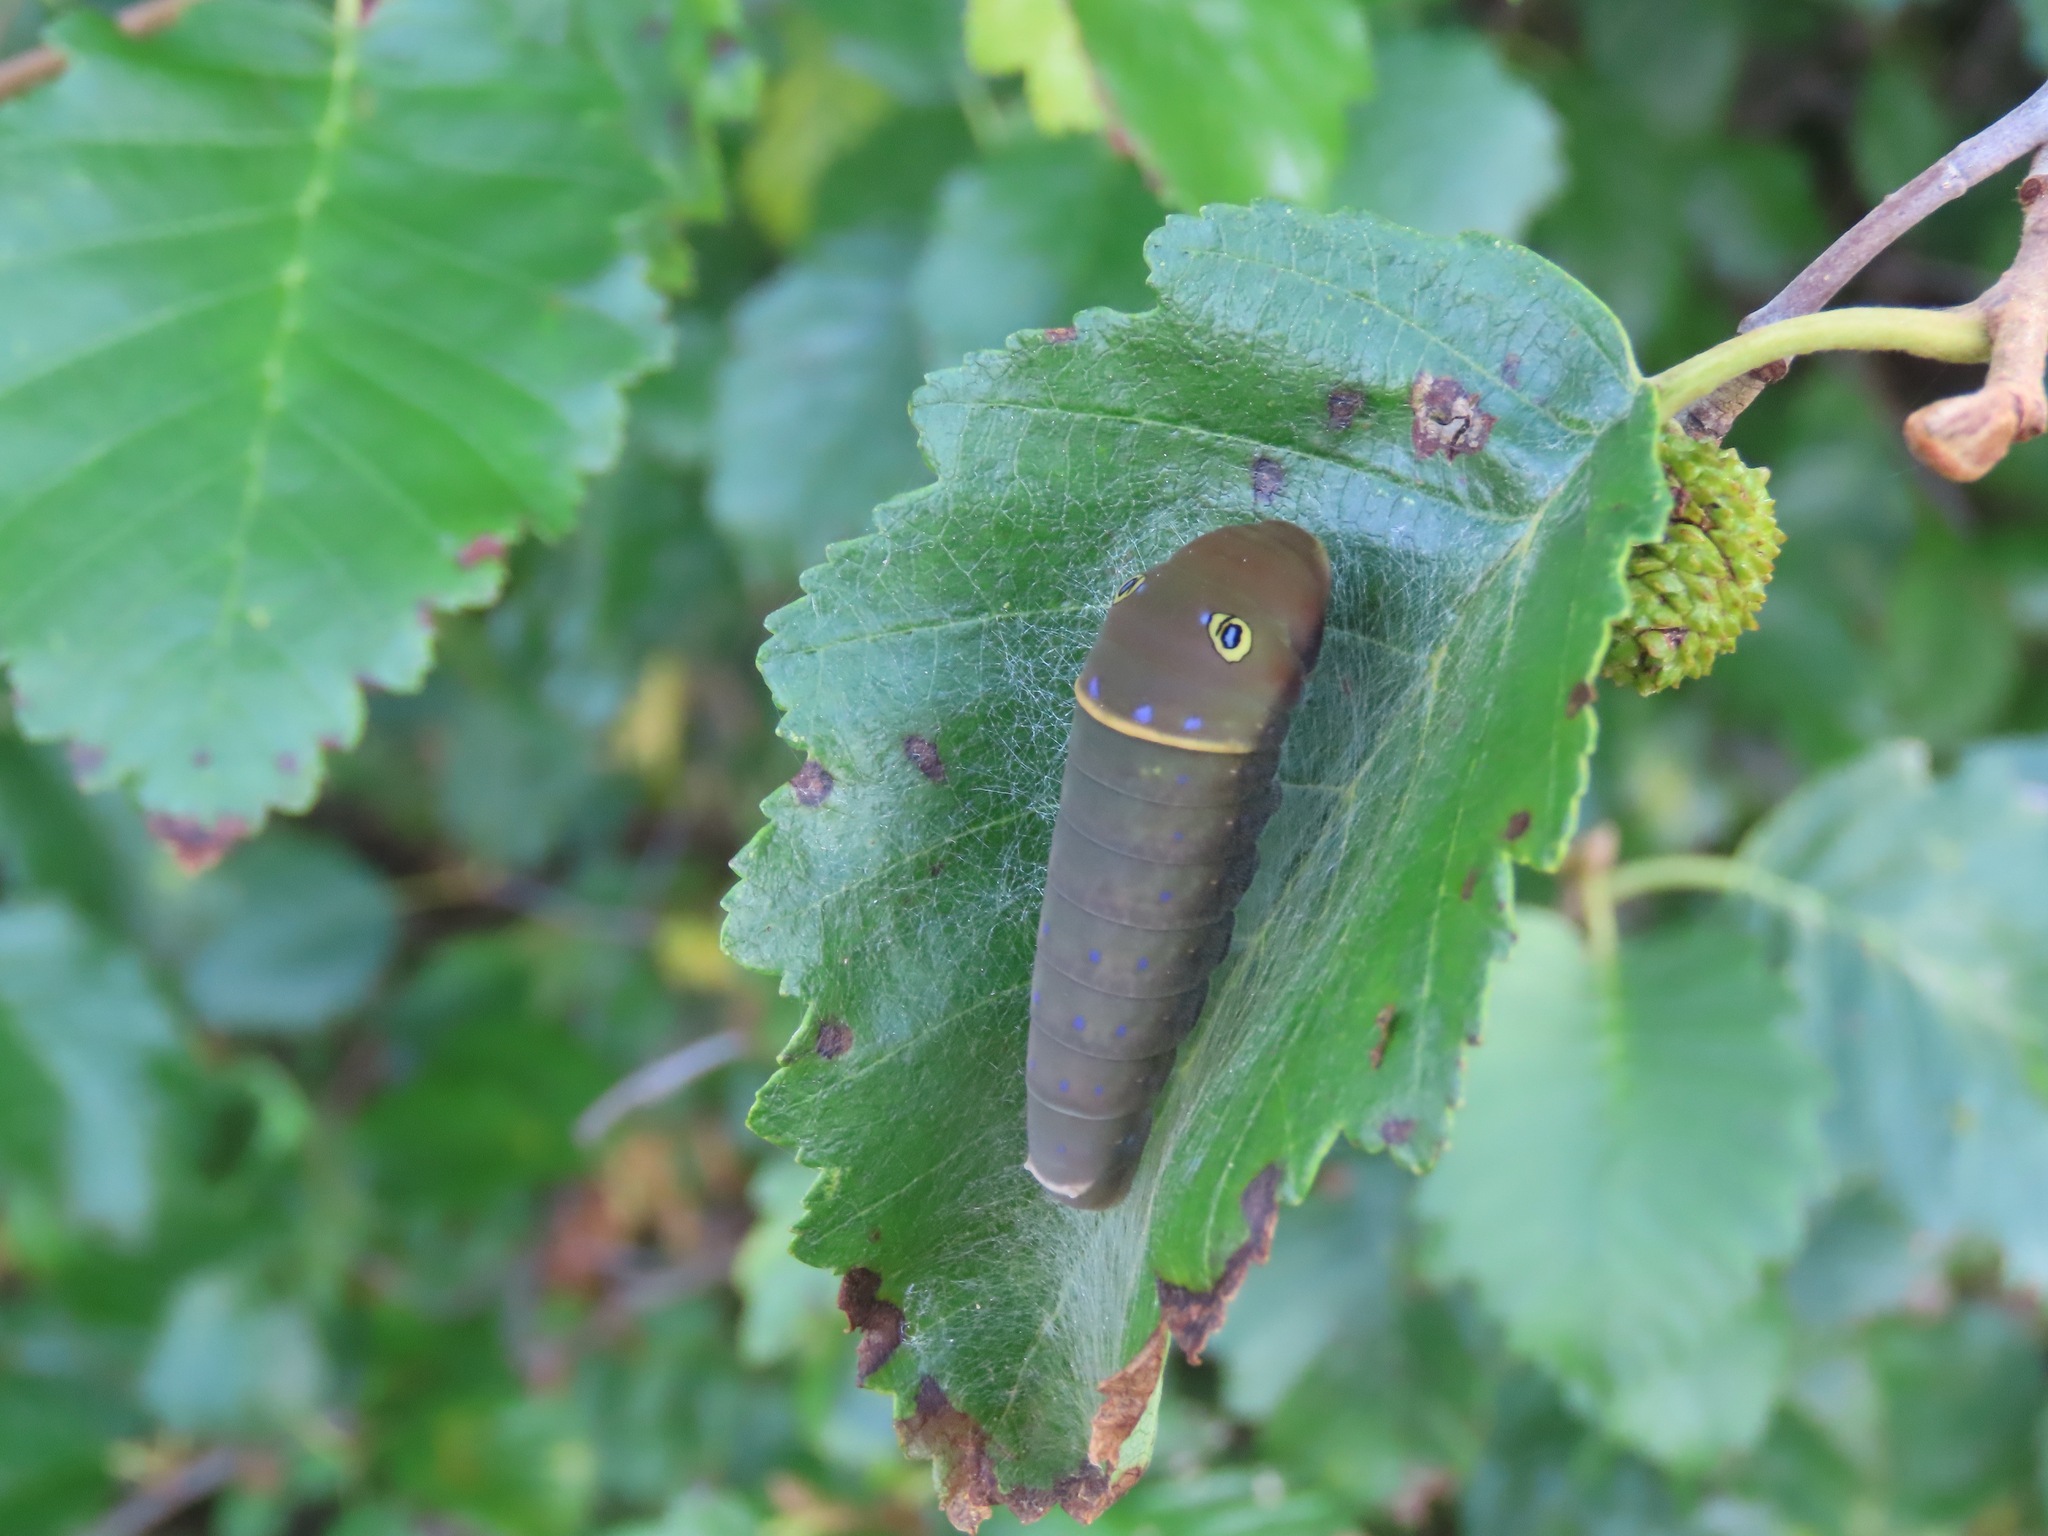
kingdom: Animalia
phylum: Arthropoda
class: Insecta
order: Lepidoptera
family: Papilionidae
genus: Papilio
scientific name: Papilio canadensis
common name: Canadian tiger swallowtail
